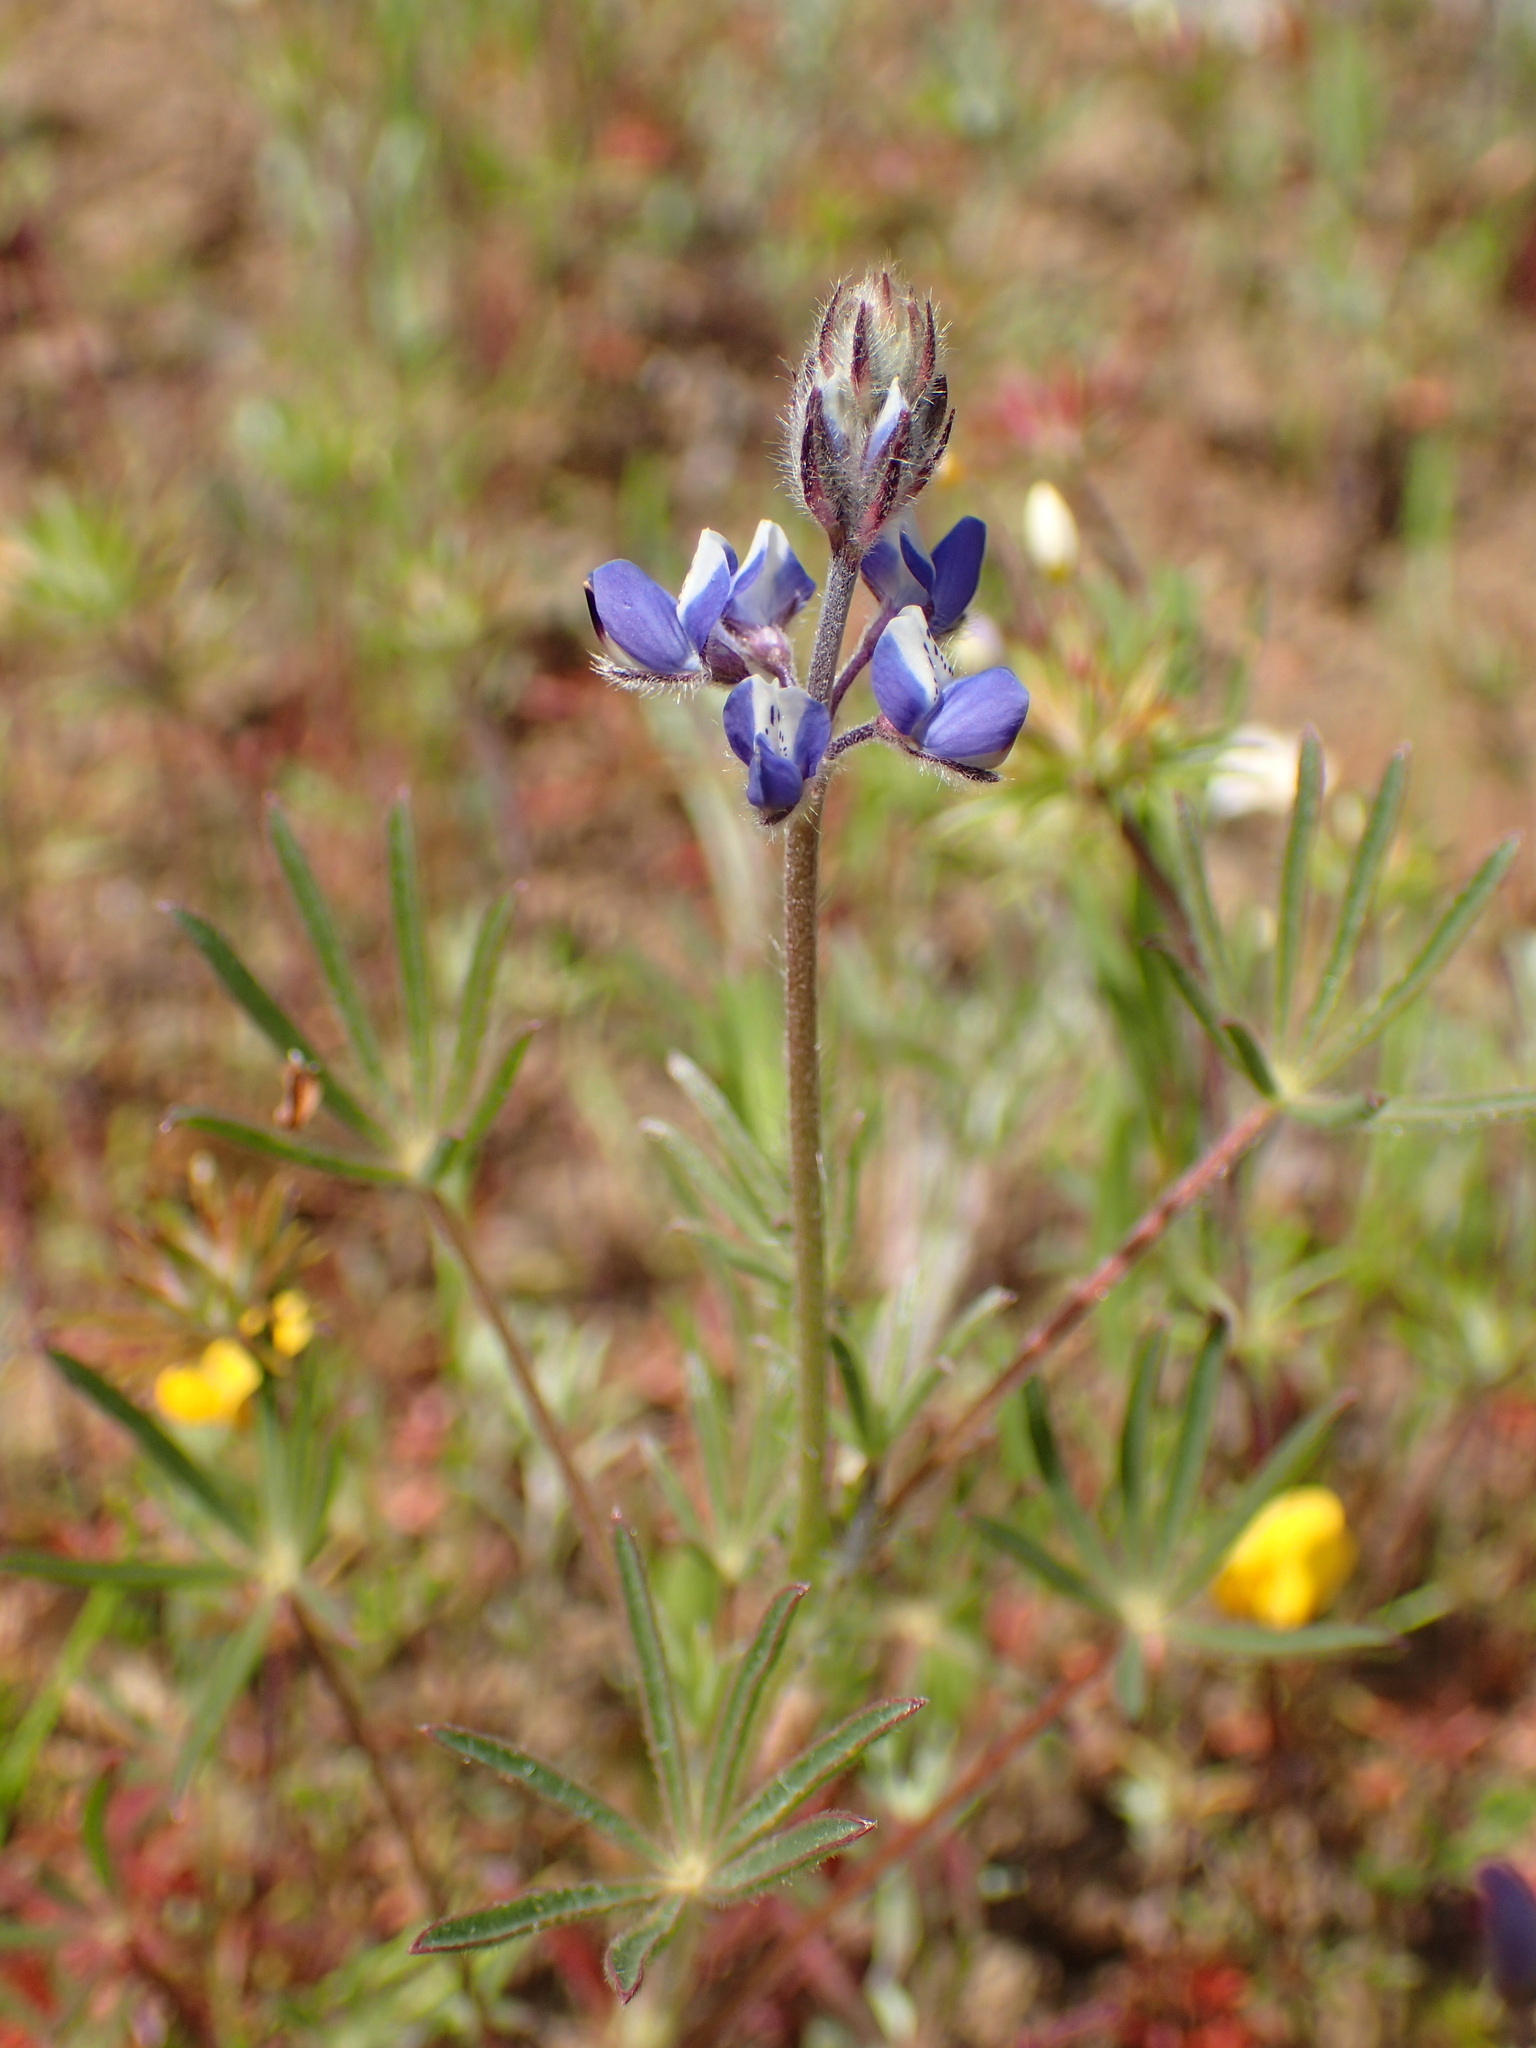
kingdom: Plantae
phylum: Tracheophyta
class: Magnoliopsida
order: Fabales
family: Fabaceae
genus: Lupinus
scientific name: Lupinus bicolor
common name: Miniature lupine
